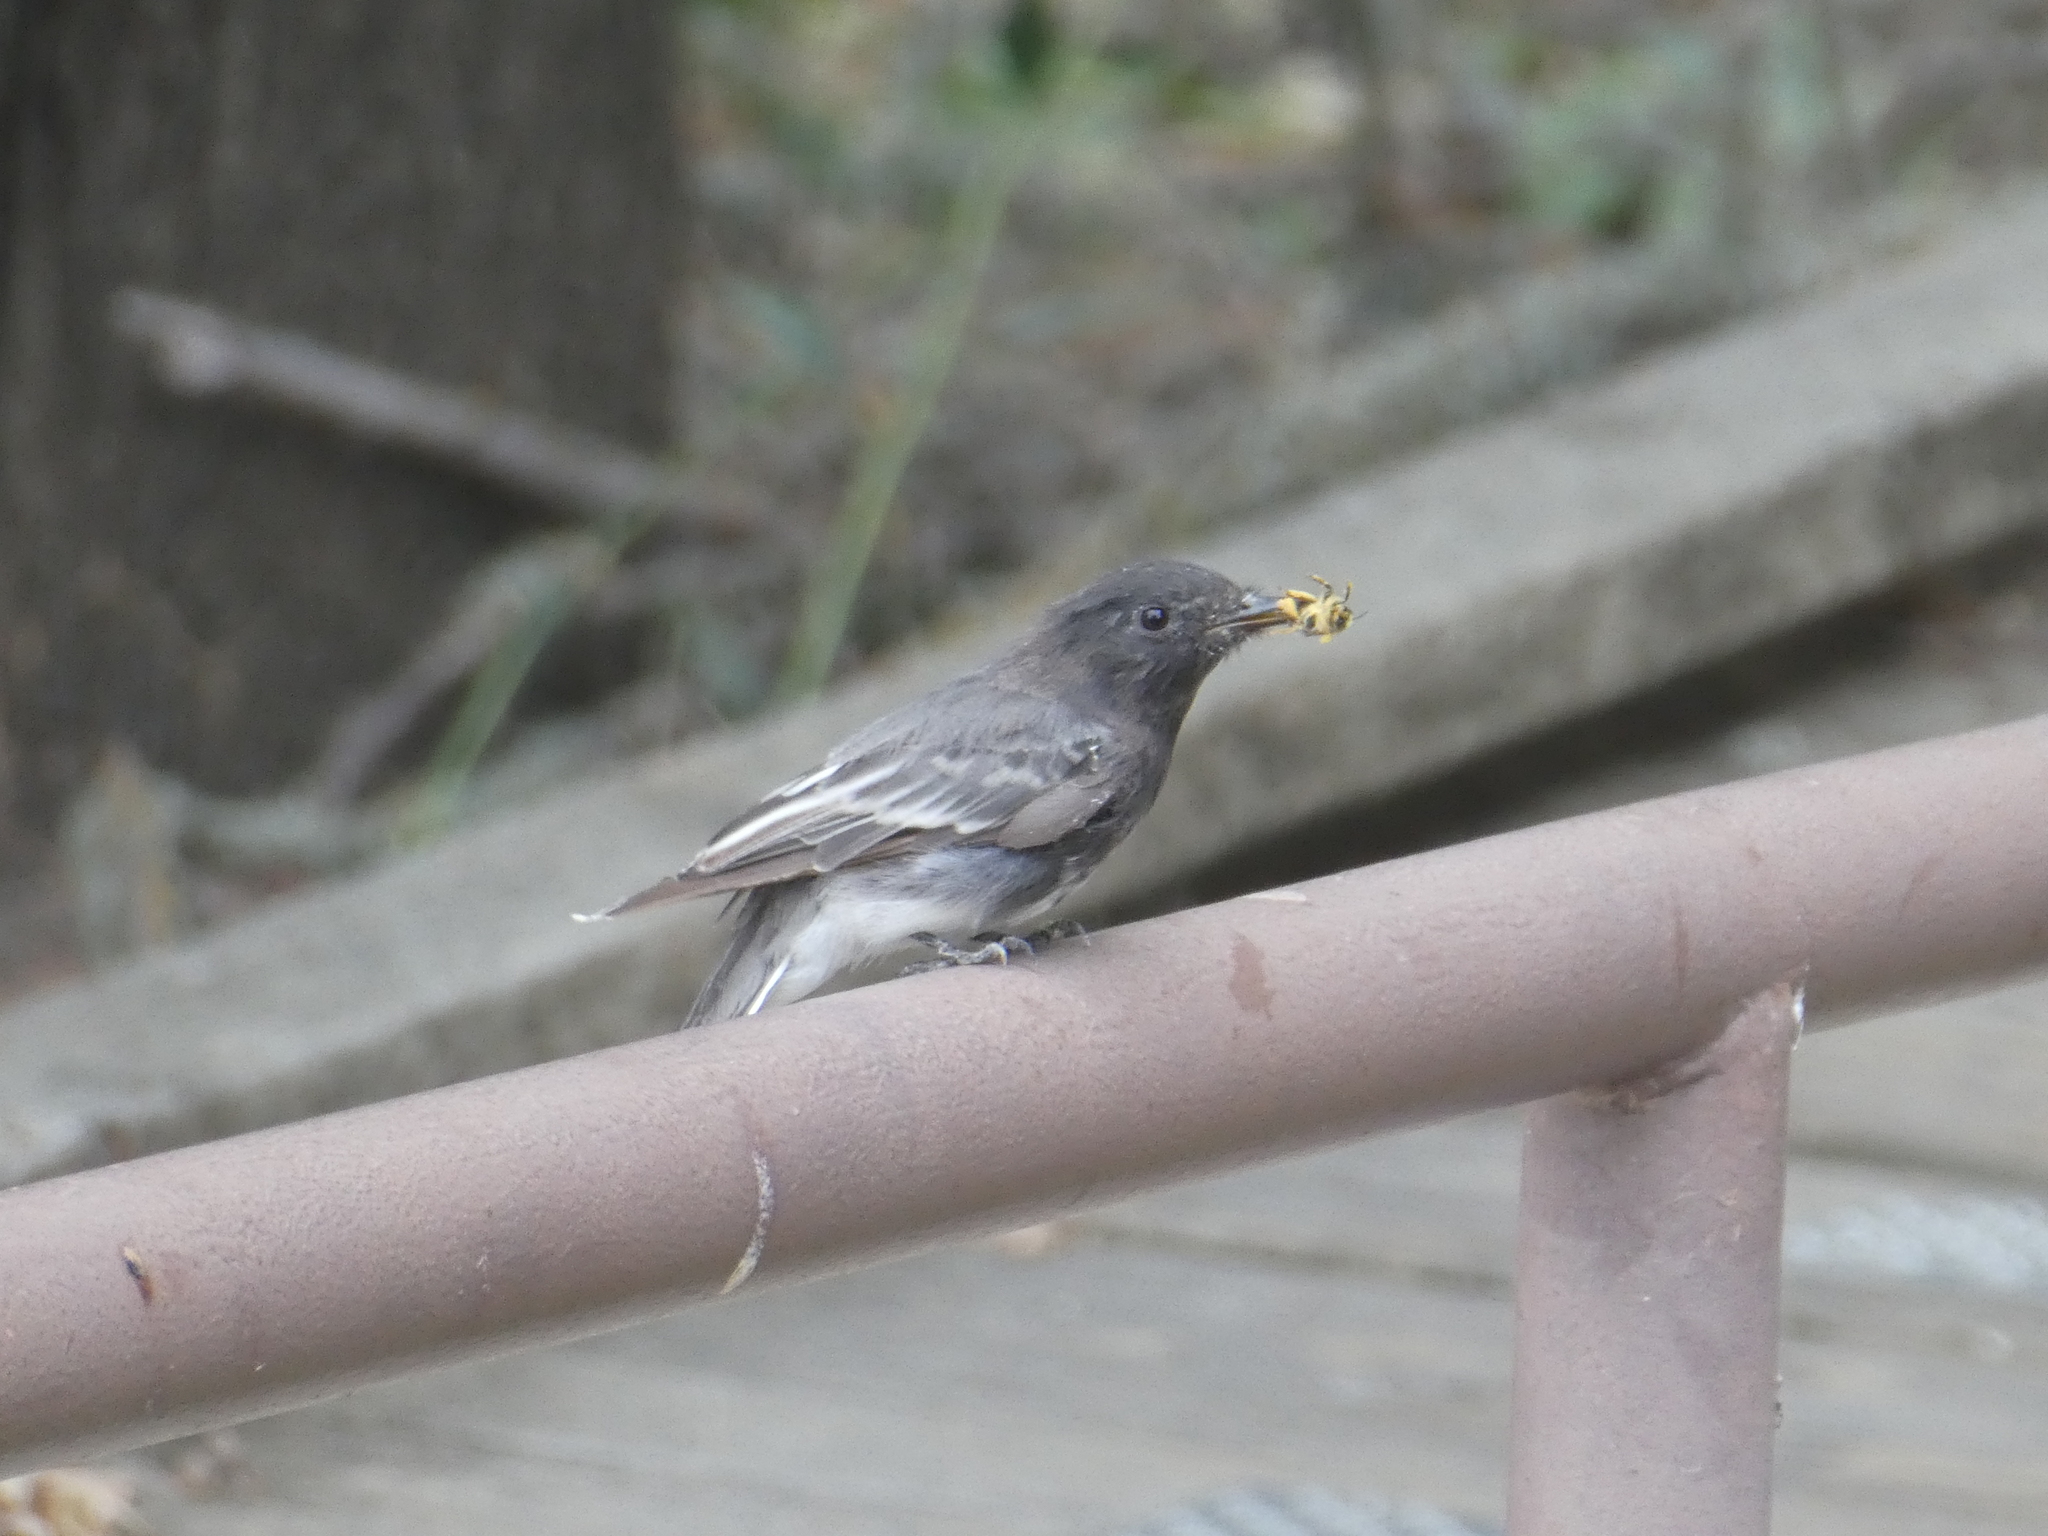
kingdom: Animalia
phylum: Chordata
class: Aves
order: Passeriformes
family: Tyrannidae
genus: Sayornis
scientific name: Sayornis nigricans
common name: Black phoebe
